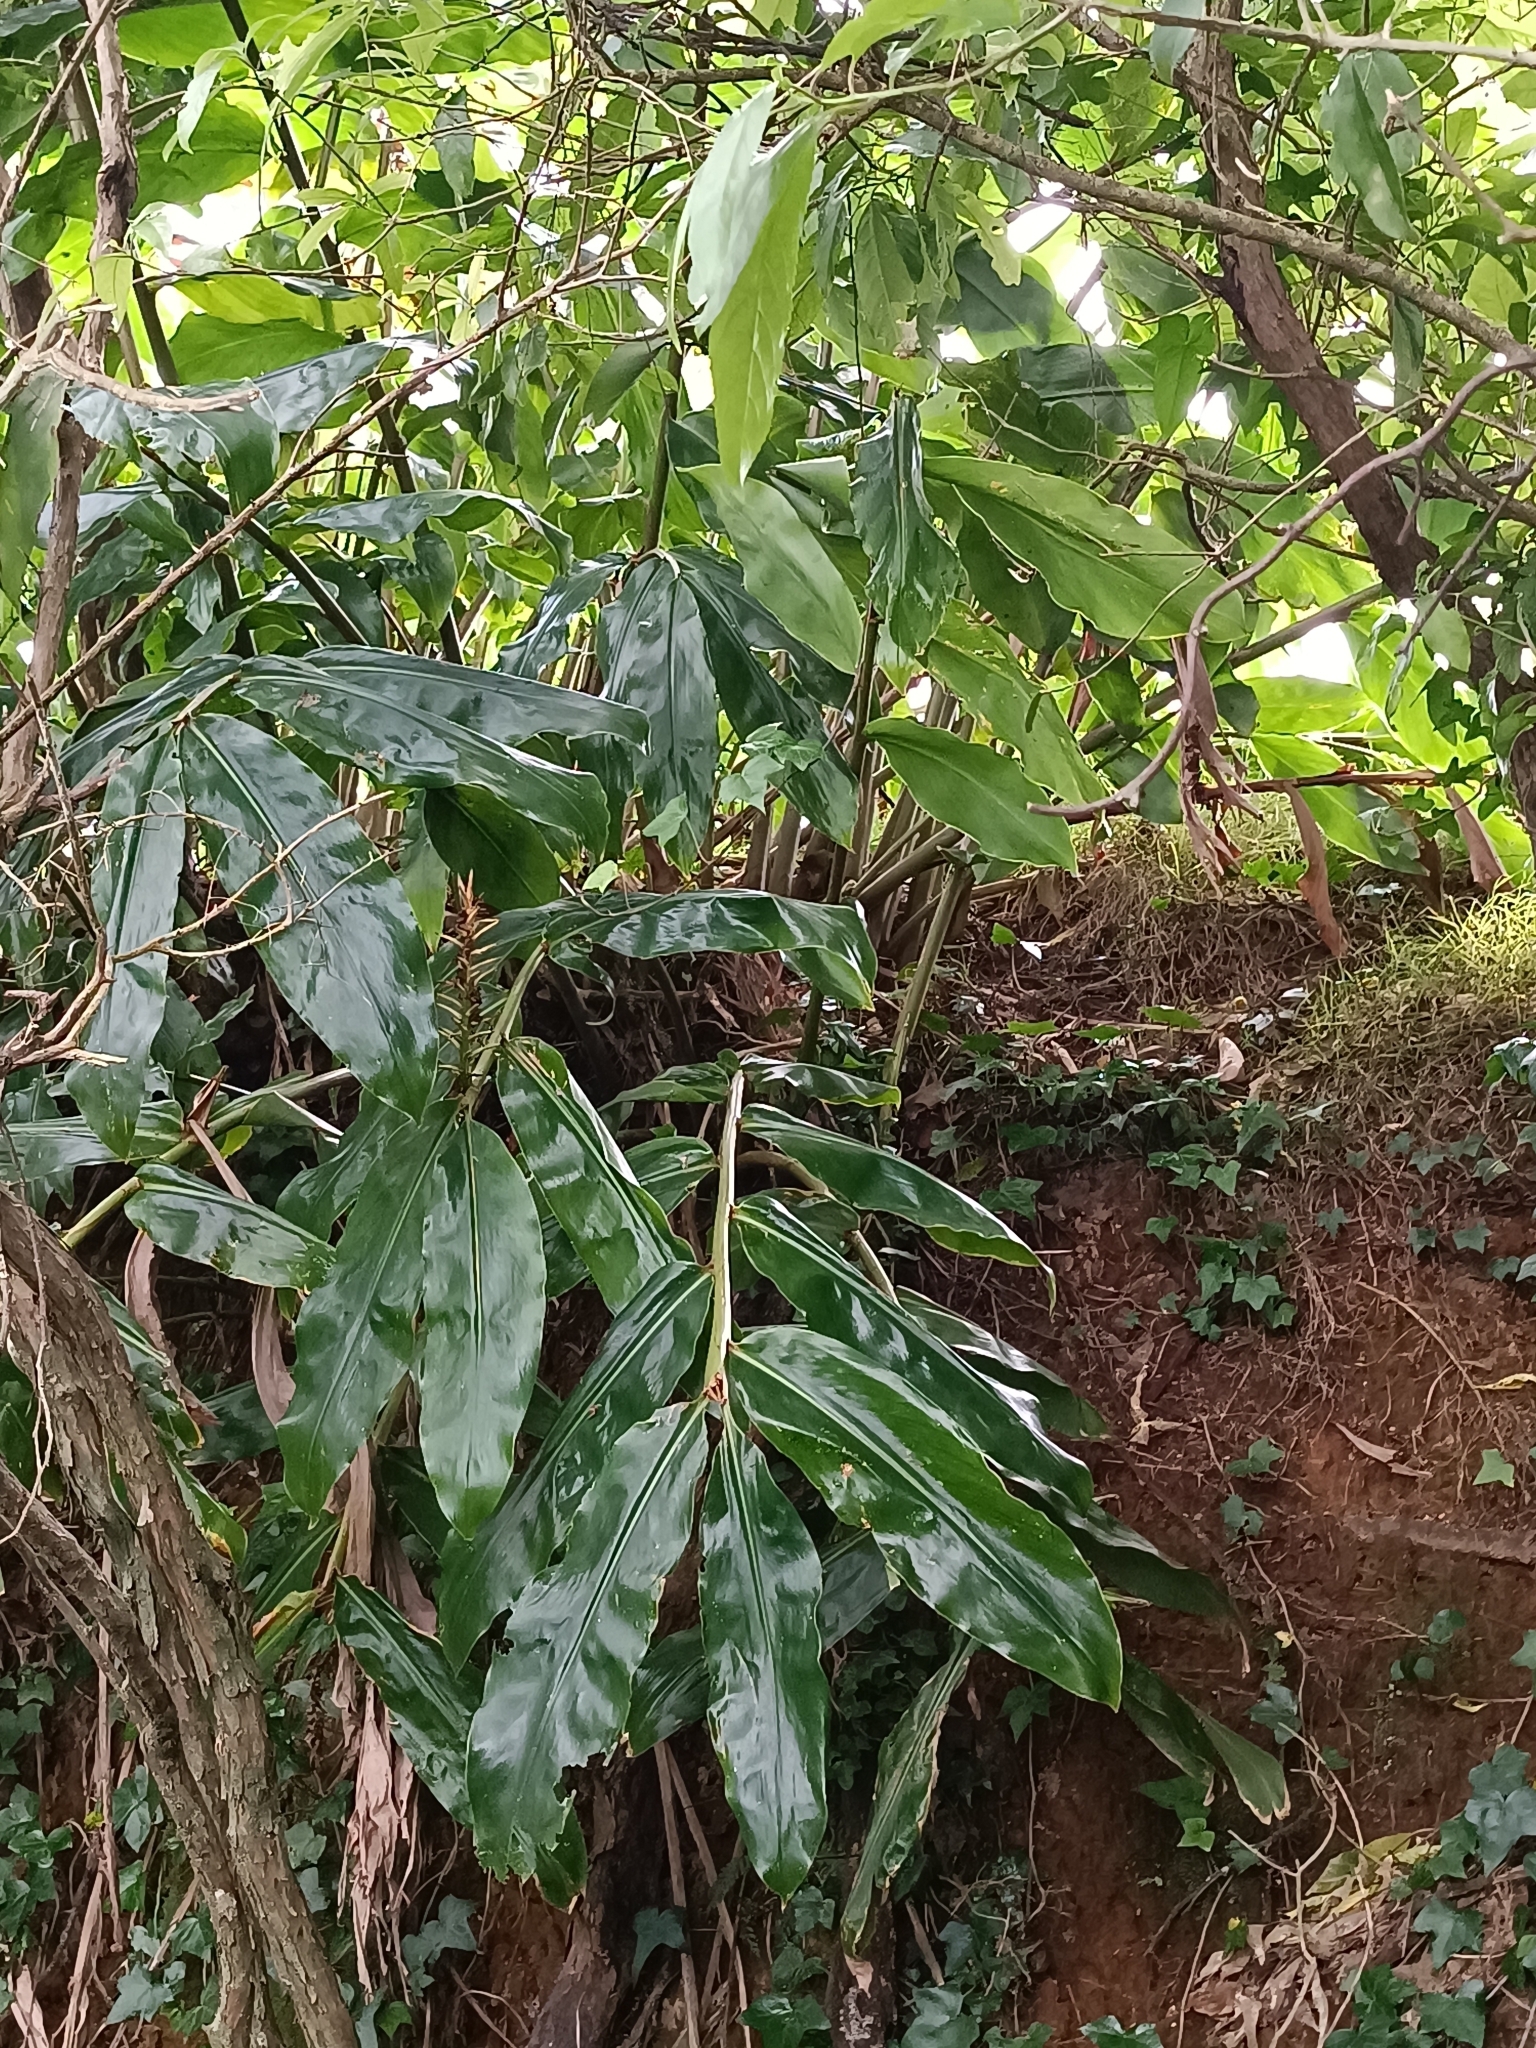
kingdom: Plantae
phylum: Tracheophyta
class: Liliopsida
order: Zingiberales
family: Zingiberaceae
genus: Hedychium
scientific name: Hedychium gardnerianum
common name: Himalayan ginger
